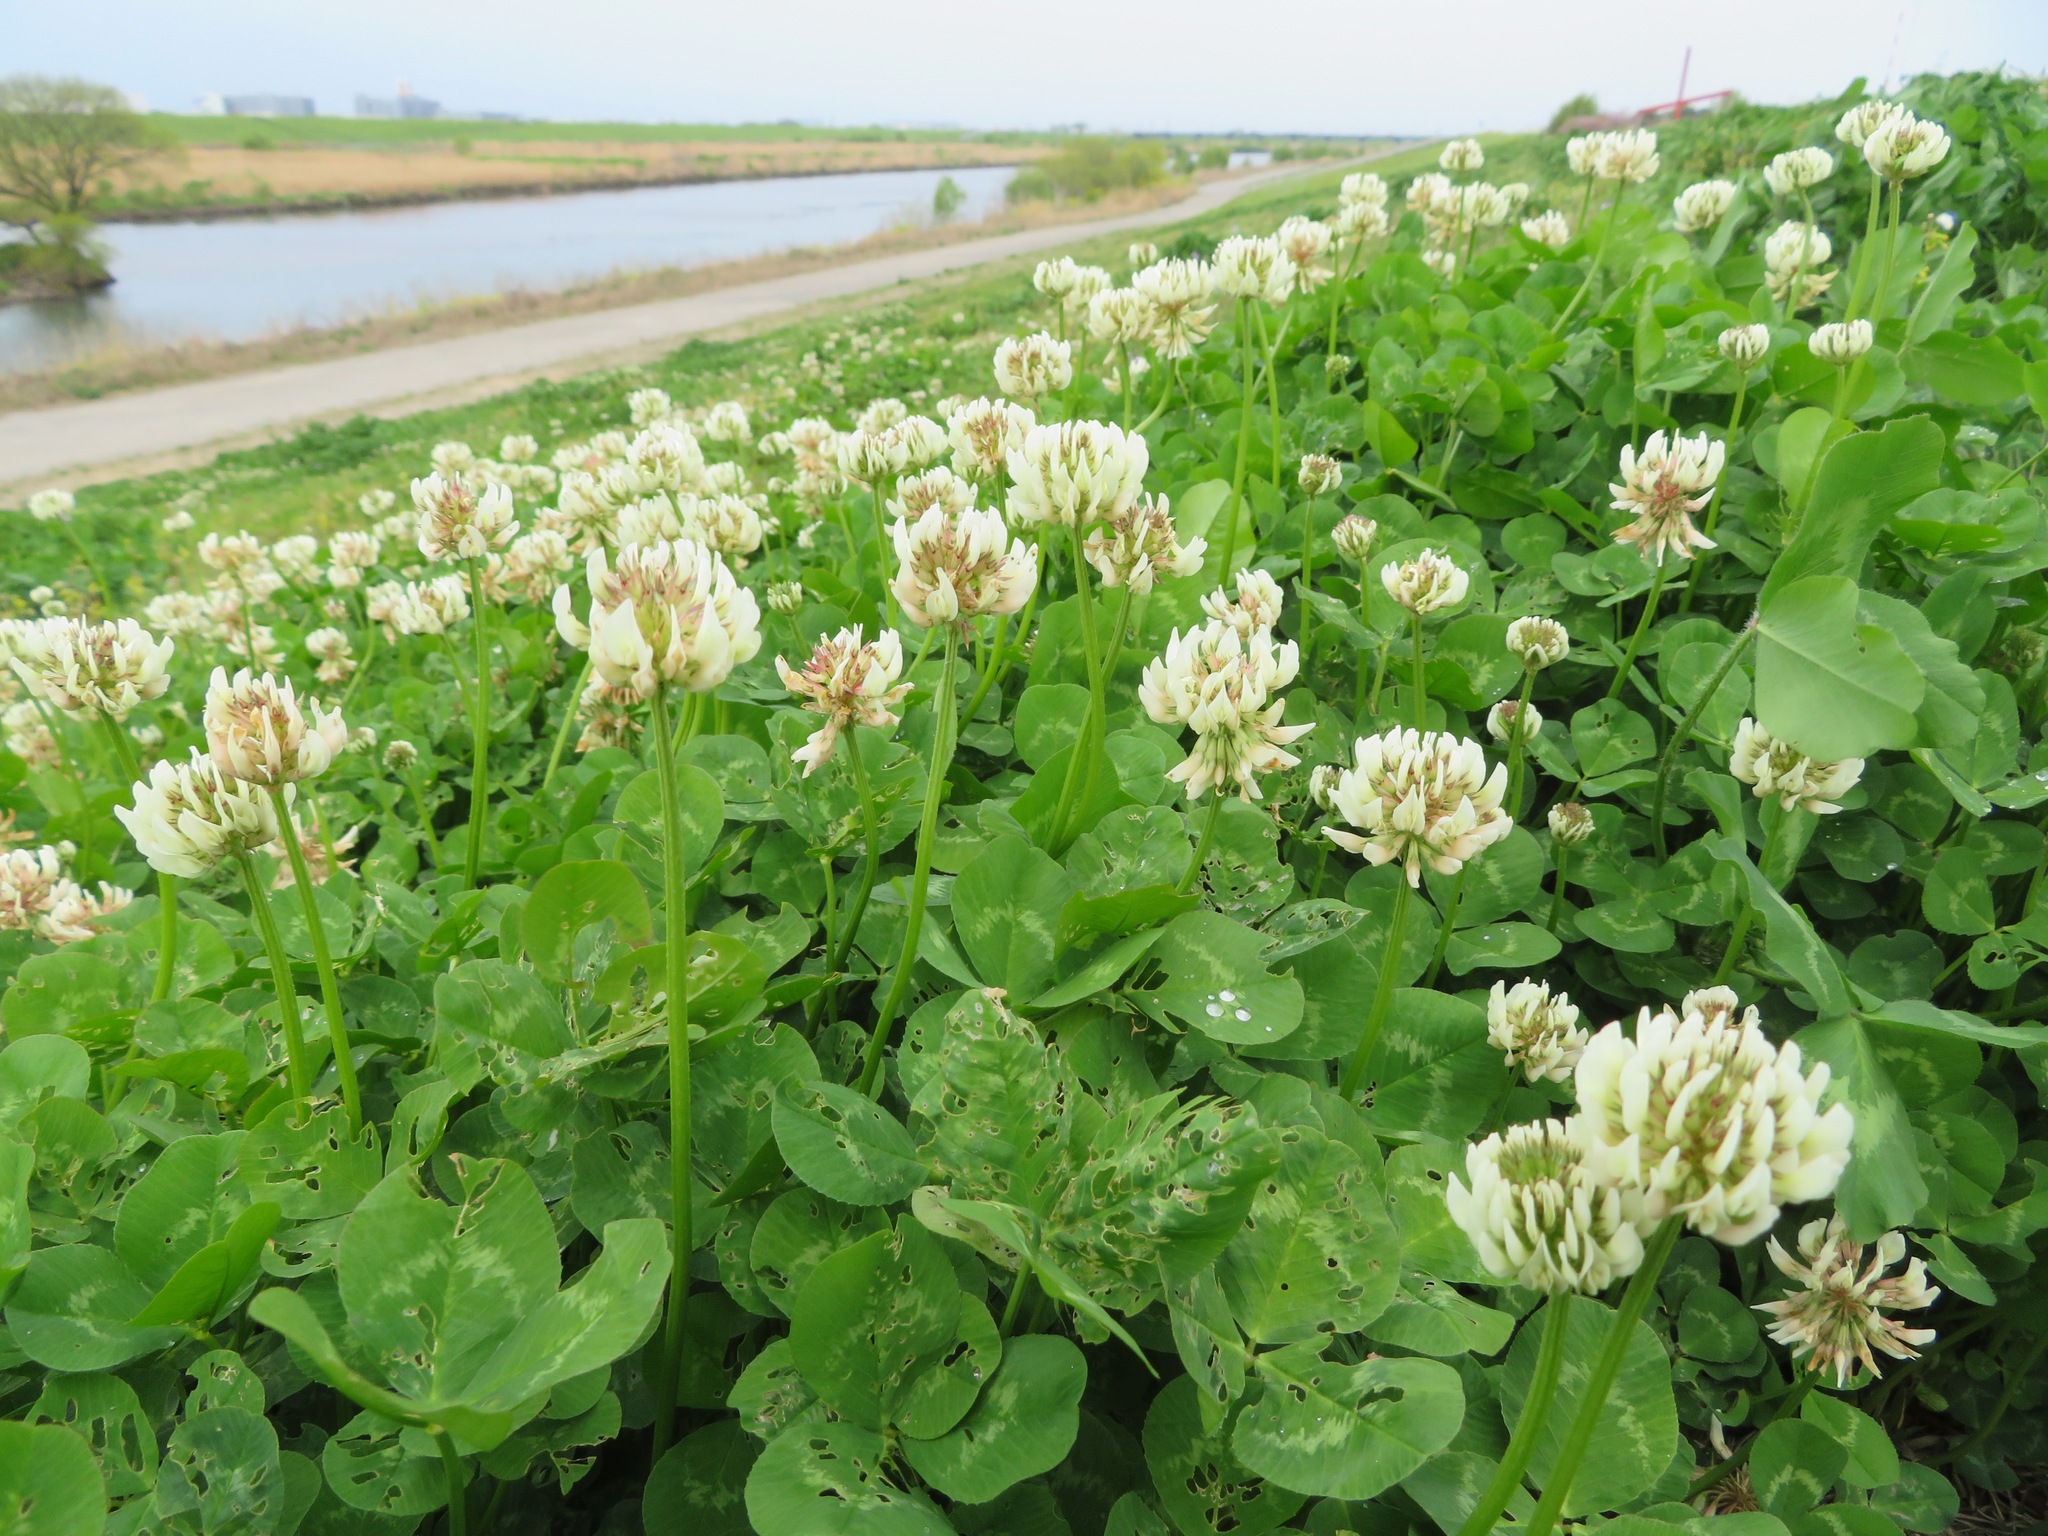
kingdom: Plantae
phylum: Tracheophyta
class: Magnoliopsida
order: Fabales
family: Fabaceae
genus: Trifolium
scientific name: Trifolium repens
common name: White clover
